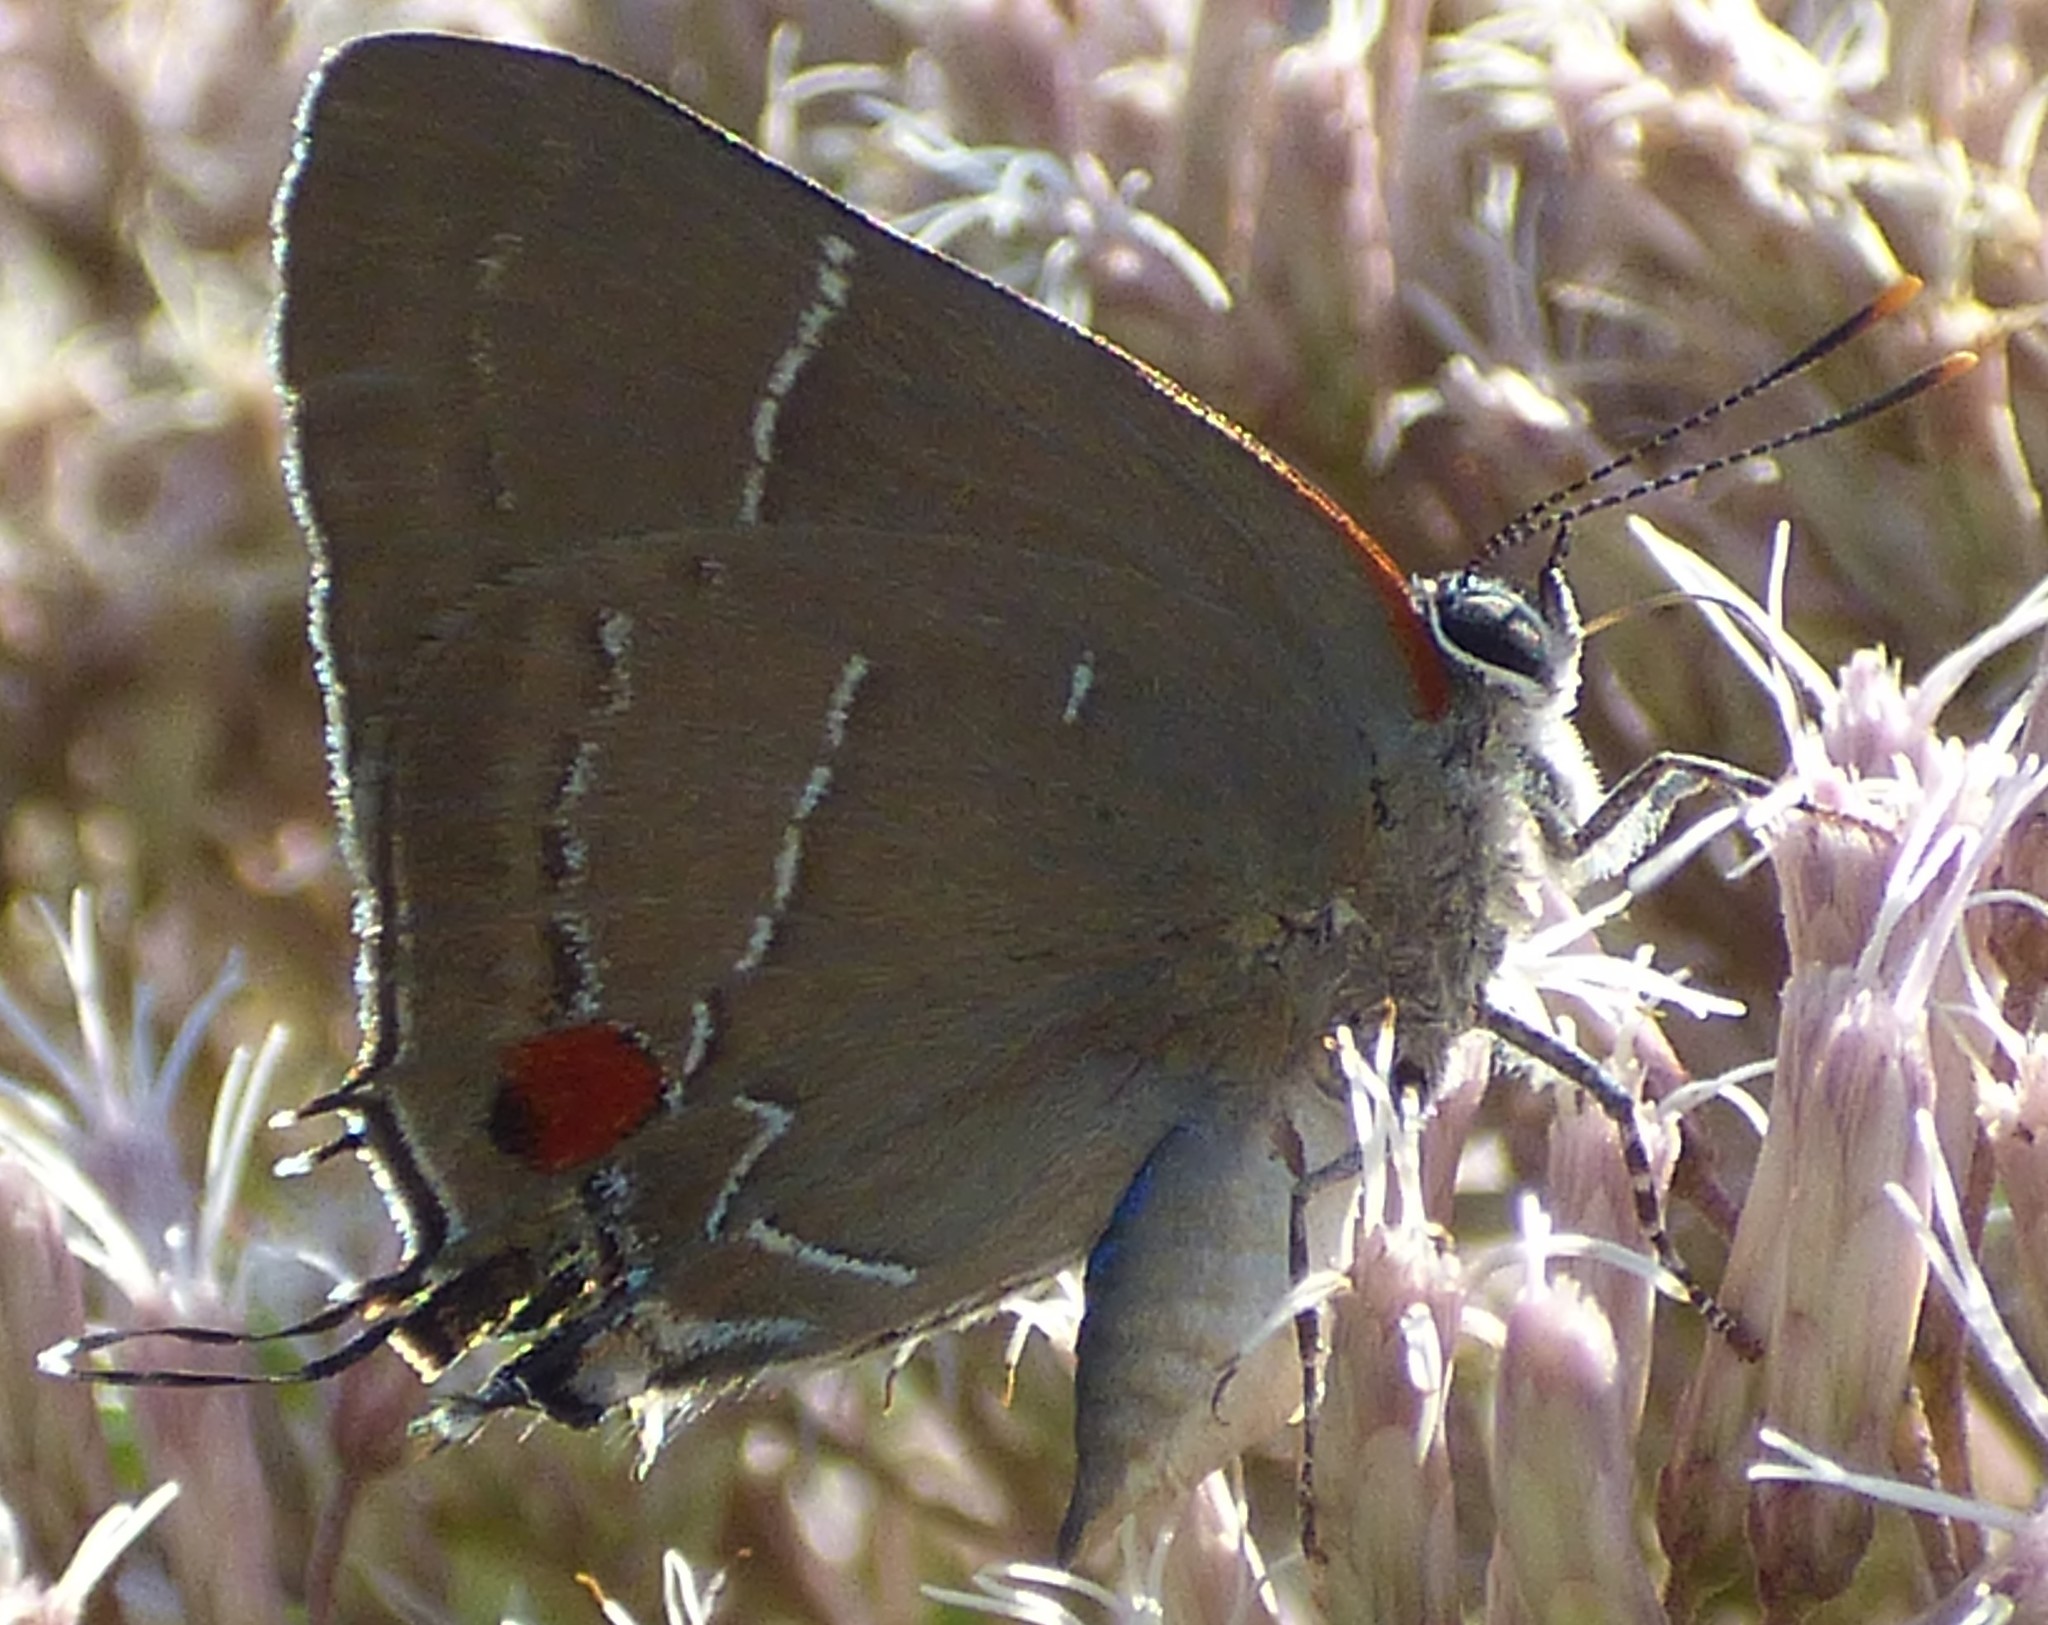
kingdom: Animalia
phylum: Arthropoda
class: Insecta
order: Lepidoptera
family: Lycaenidae
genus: Parrhasius
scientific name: Parrhasius m-album
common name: White m hairstreak
